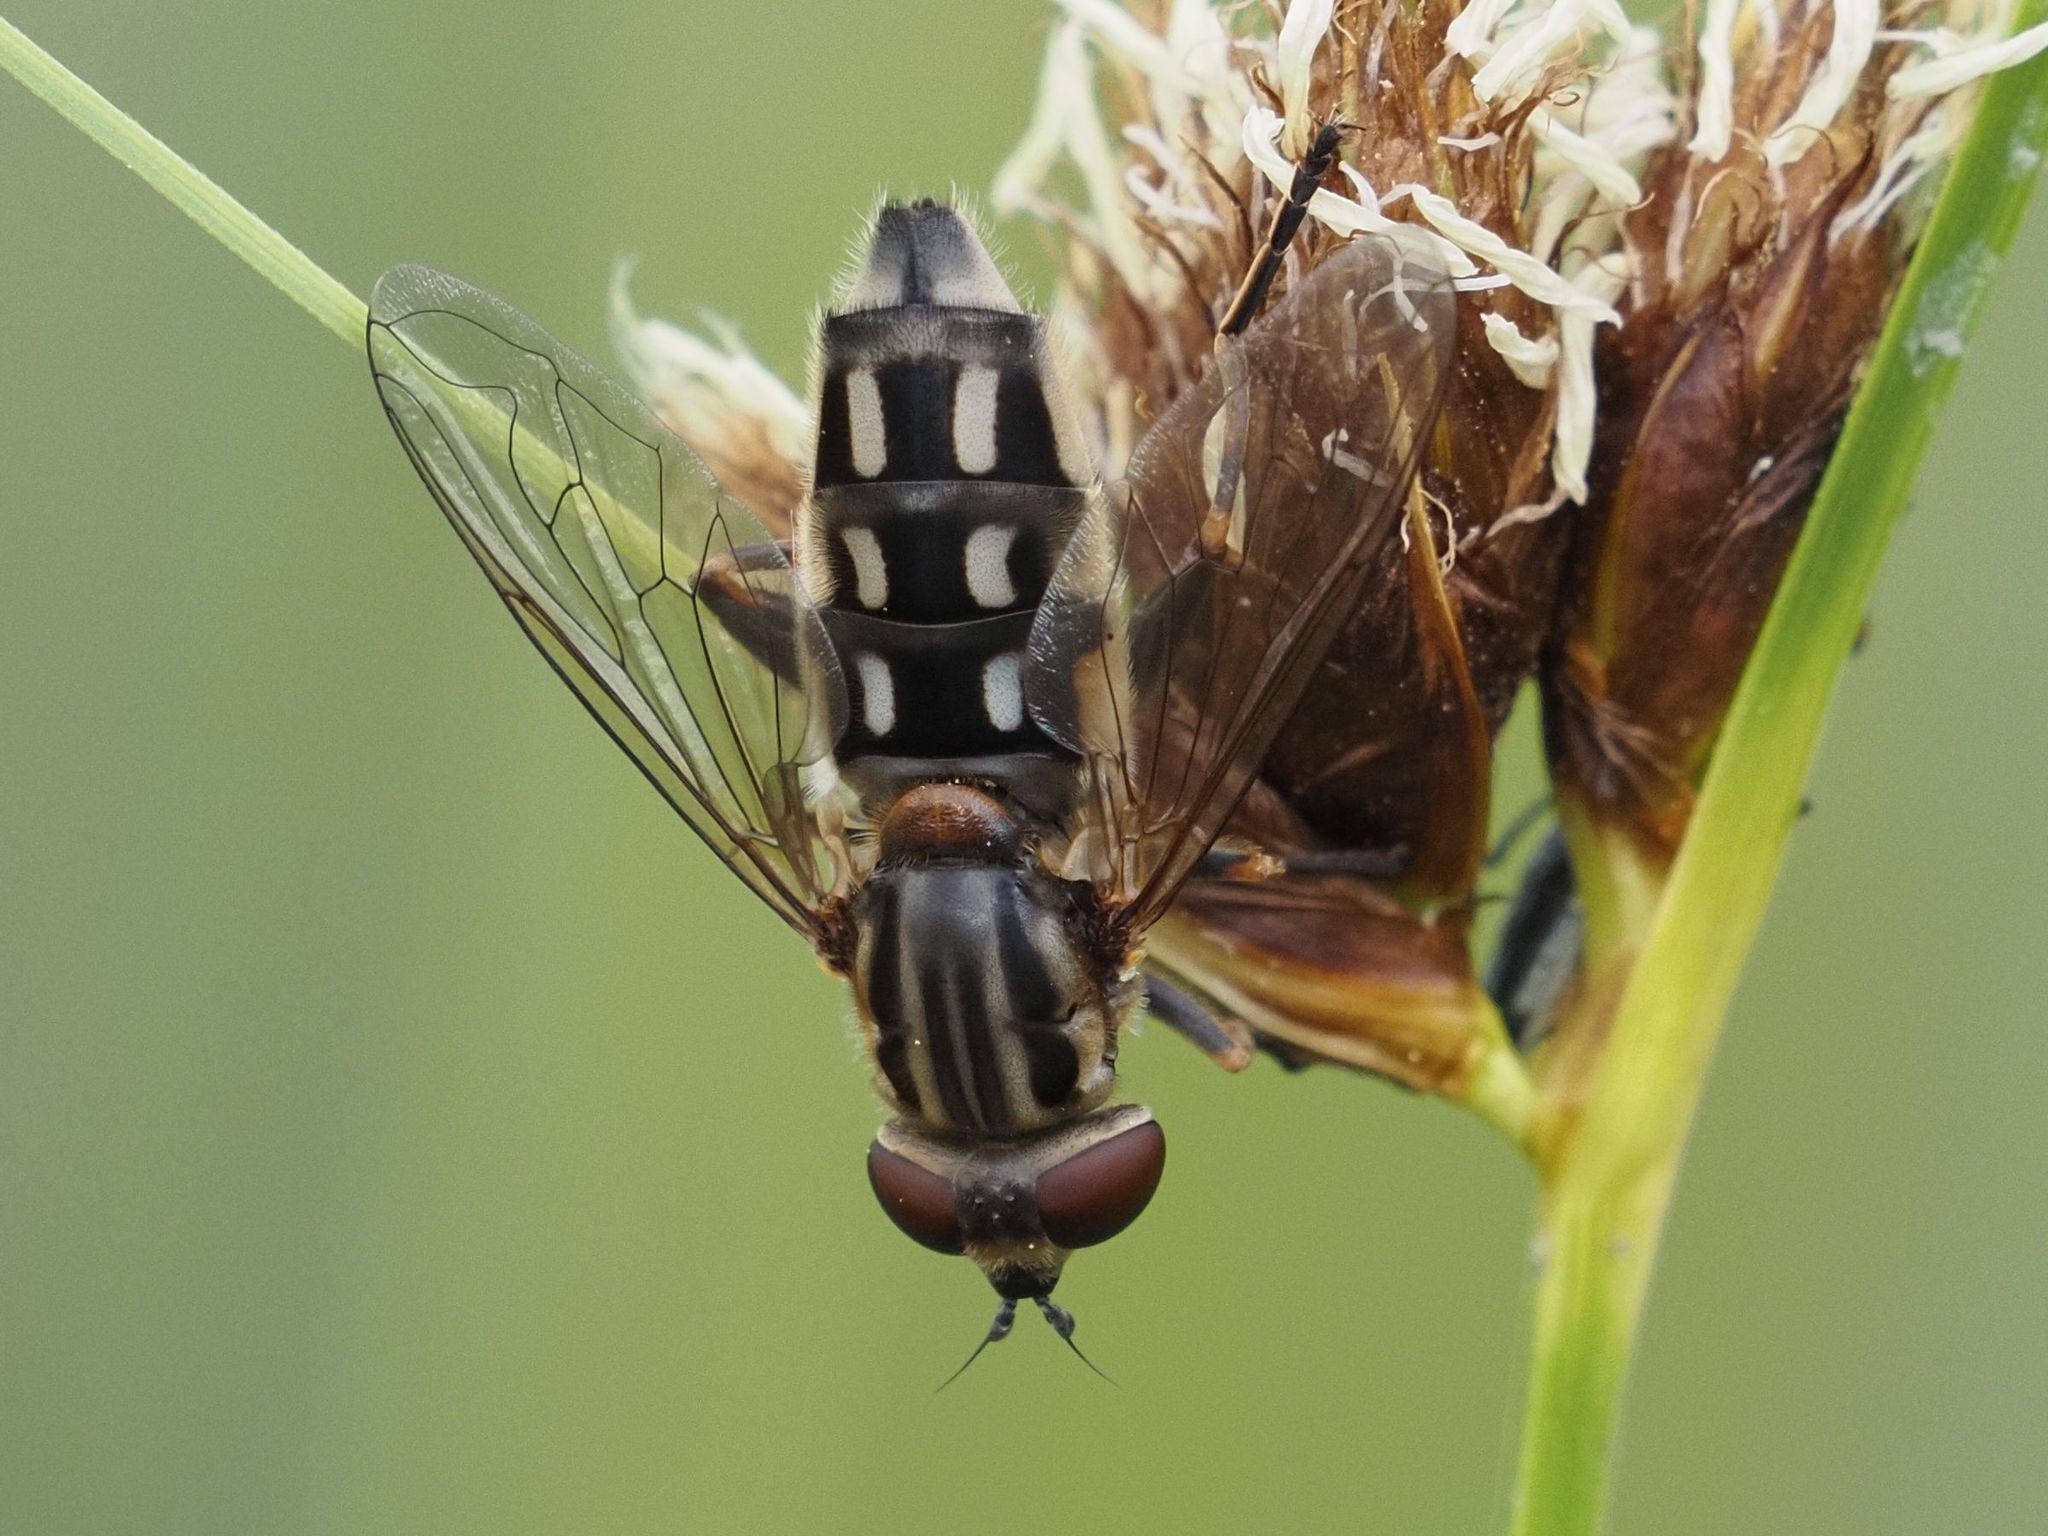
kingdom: Animalia
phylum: Arthropoda
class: Insecta
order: Diptera
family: Syrphidae
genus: Lejops
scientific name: Lejops vittatus
